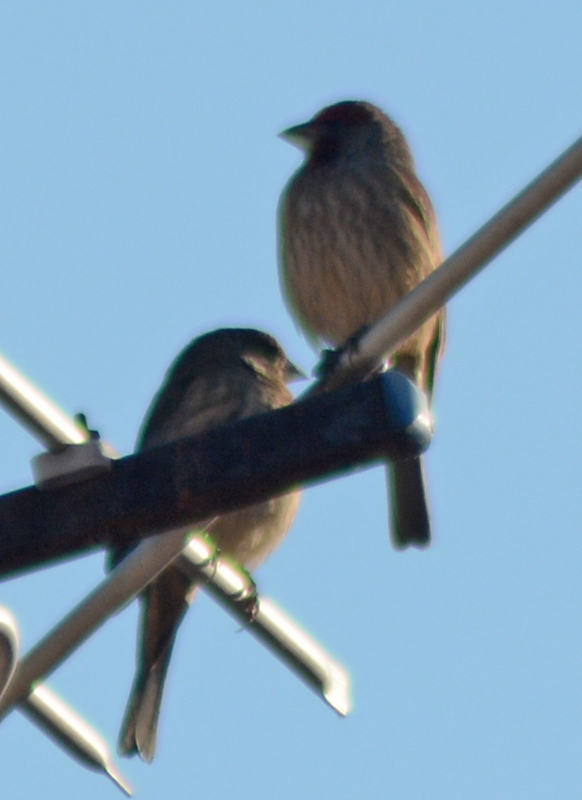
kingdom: Animalia
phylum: Chordata
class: Aves
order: Passeriformes
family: Fringillidae
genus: Haemorhous
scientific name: Haemorhous mexicanus
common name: House finch
